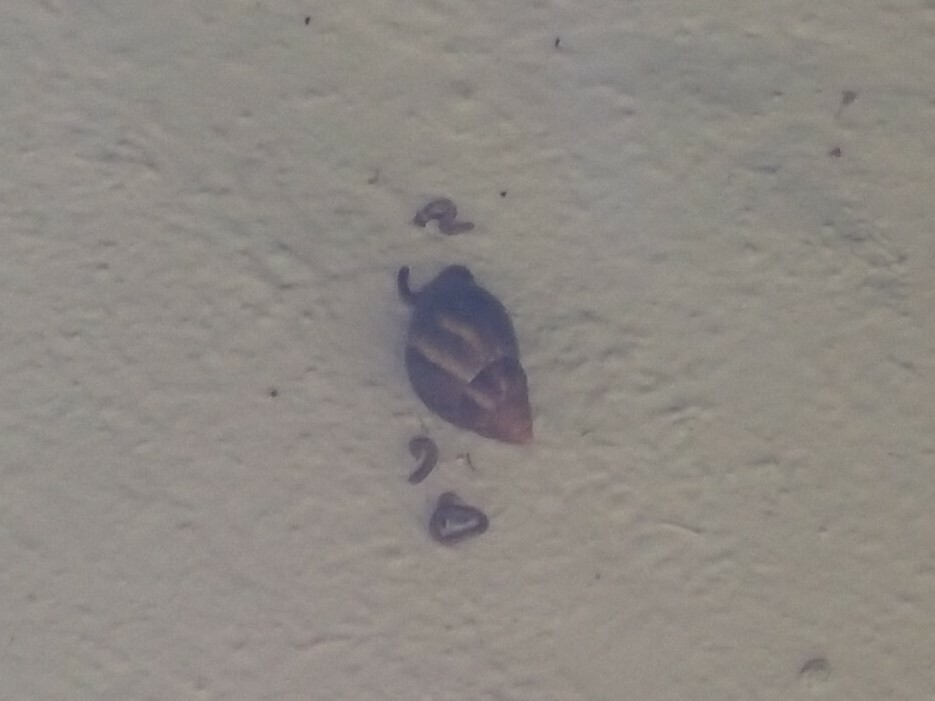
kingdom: Animalia
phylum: Mollusca
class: Gastropoda
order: Stylommatophora
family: Achatinidae
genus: Lissachatina
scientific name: Lissachatina fulica
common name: Giant african snail
